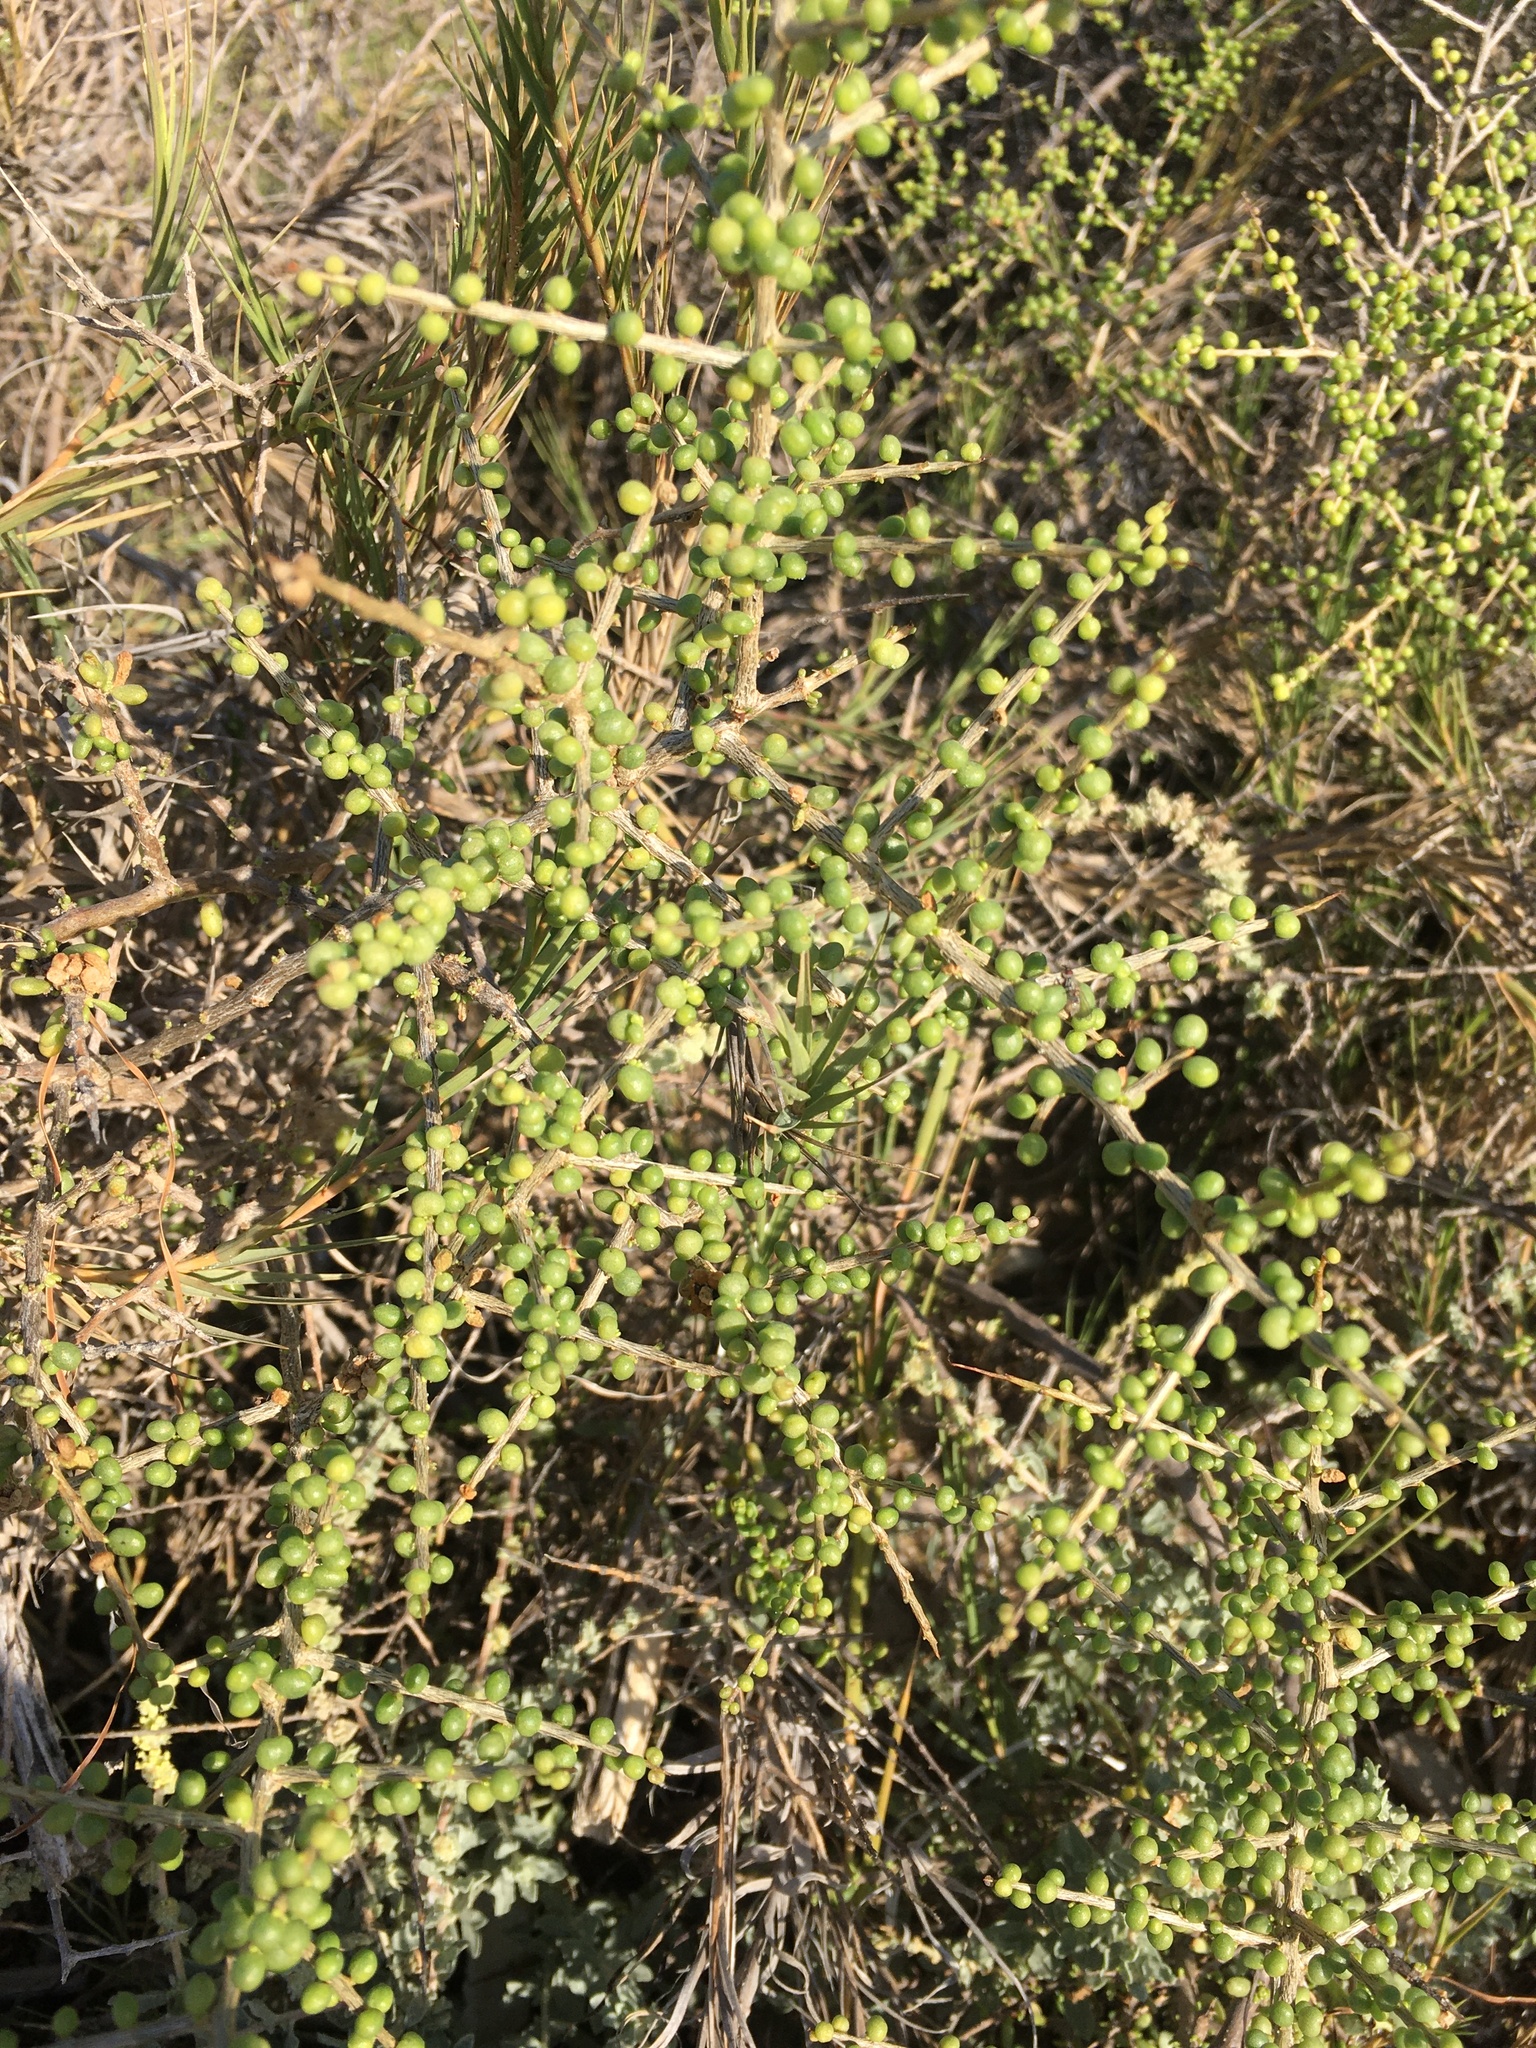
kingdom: Plantae
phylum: Tracheophyta
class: Magnoliopsida
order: Solanales
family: Solanaceae
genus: Lycium
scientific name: Lycium californicum
